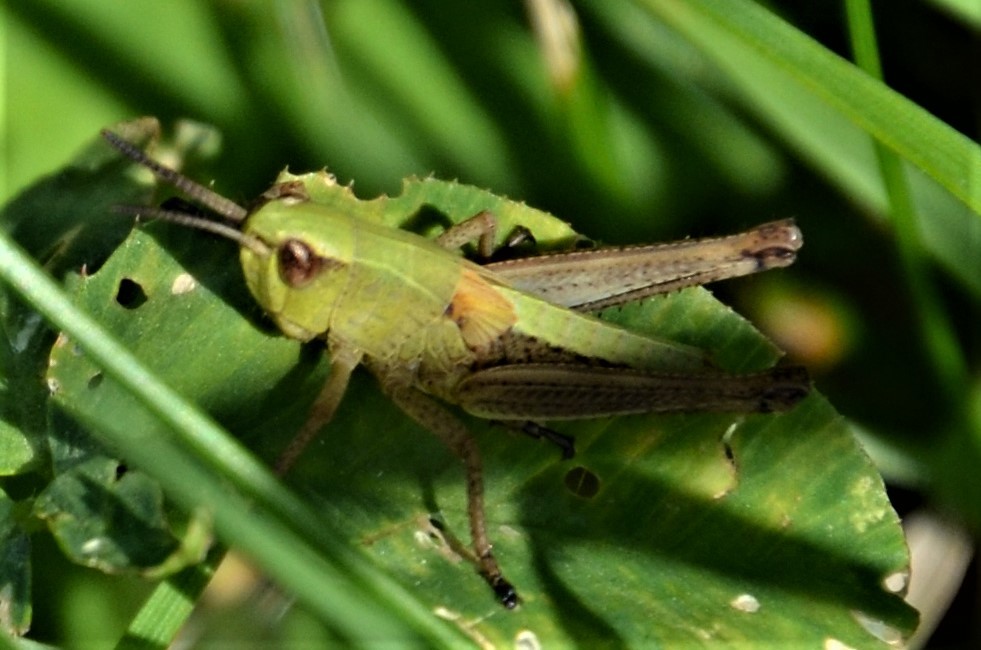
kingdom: Animalia
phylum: Arthropoda
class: Insecta
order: Orthoptera
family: Acrididae
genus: Pseudochorthippus
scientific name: Pseudochorthippus parallelus
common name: Meadow grasshopper
